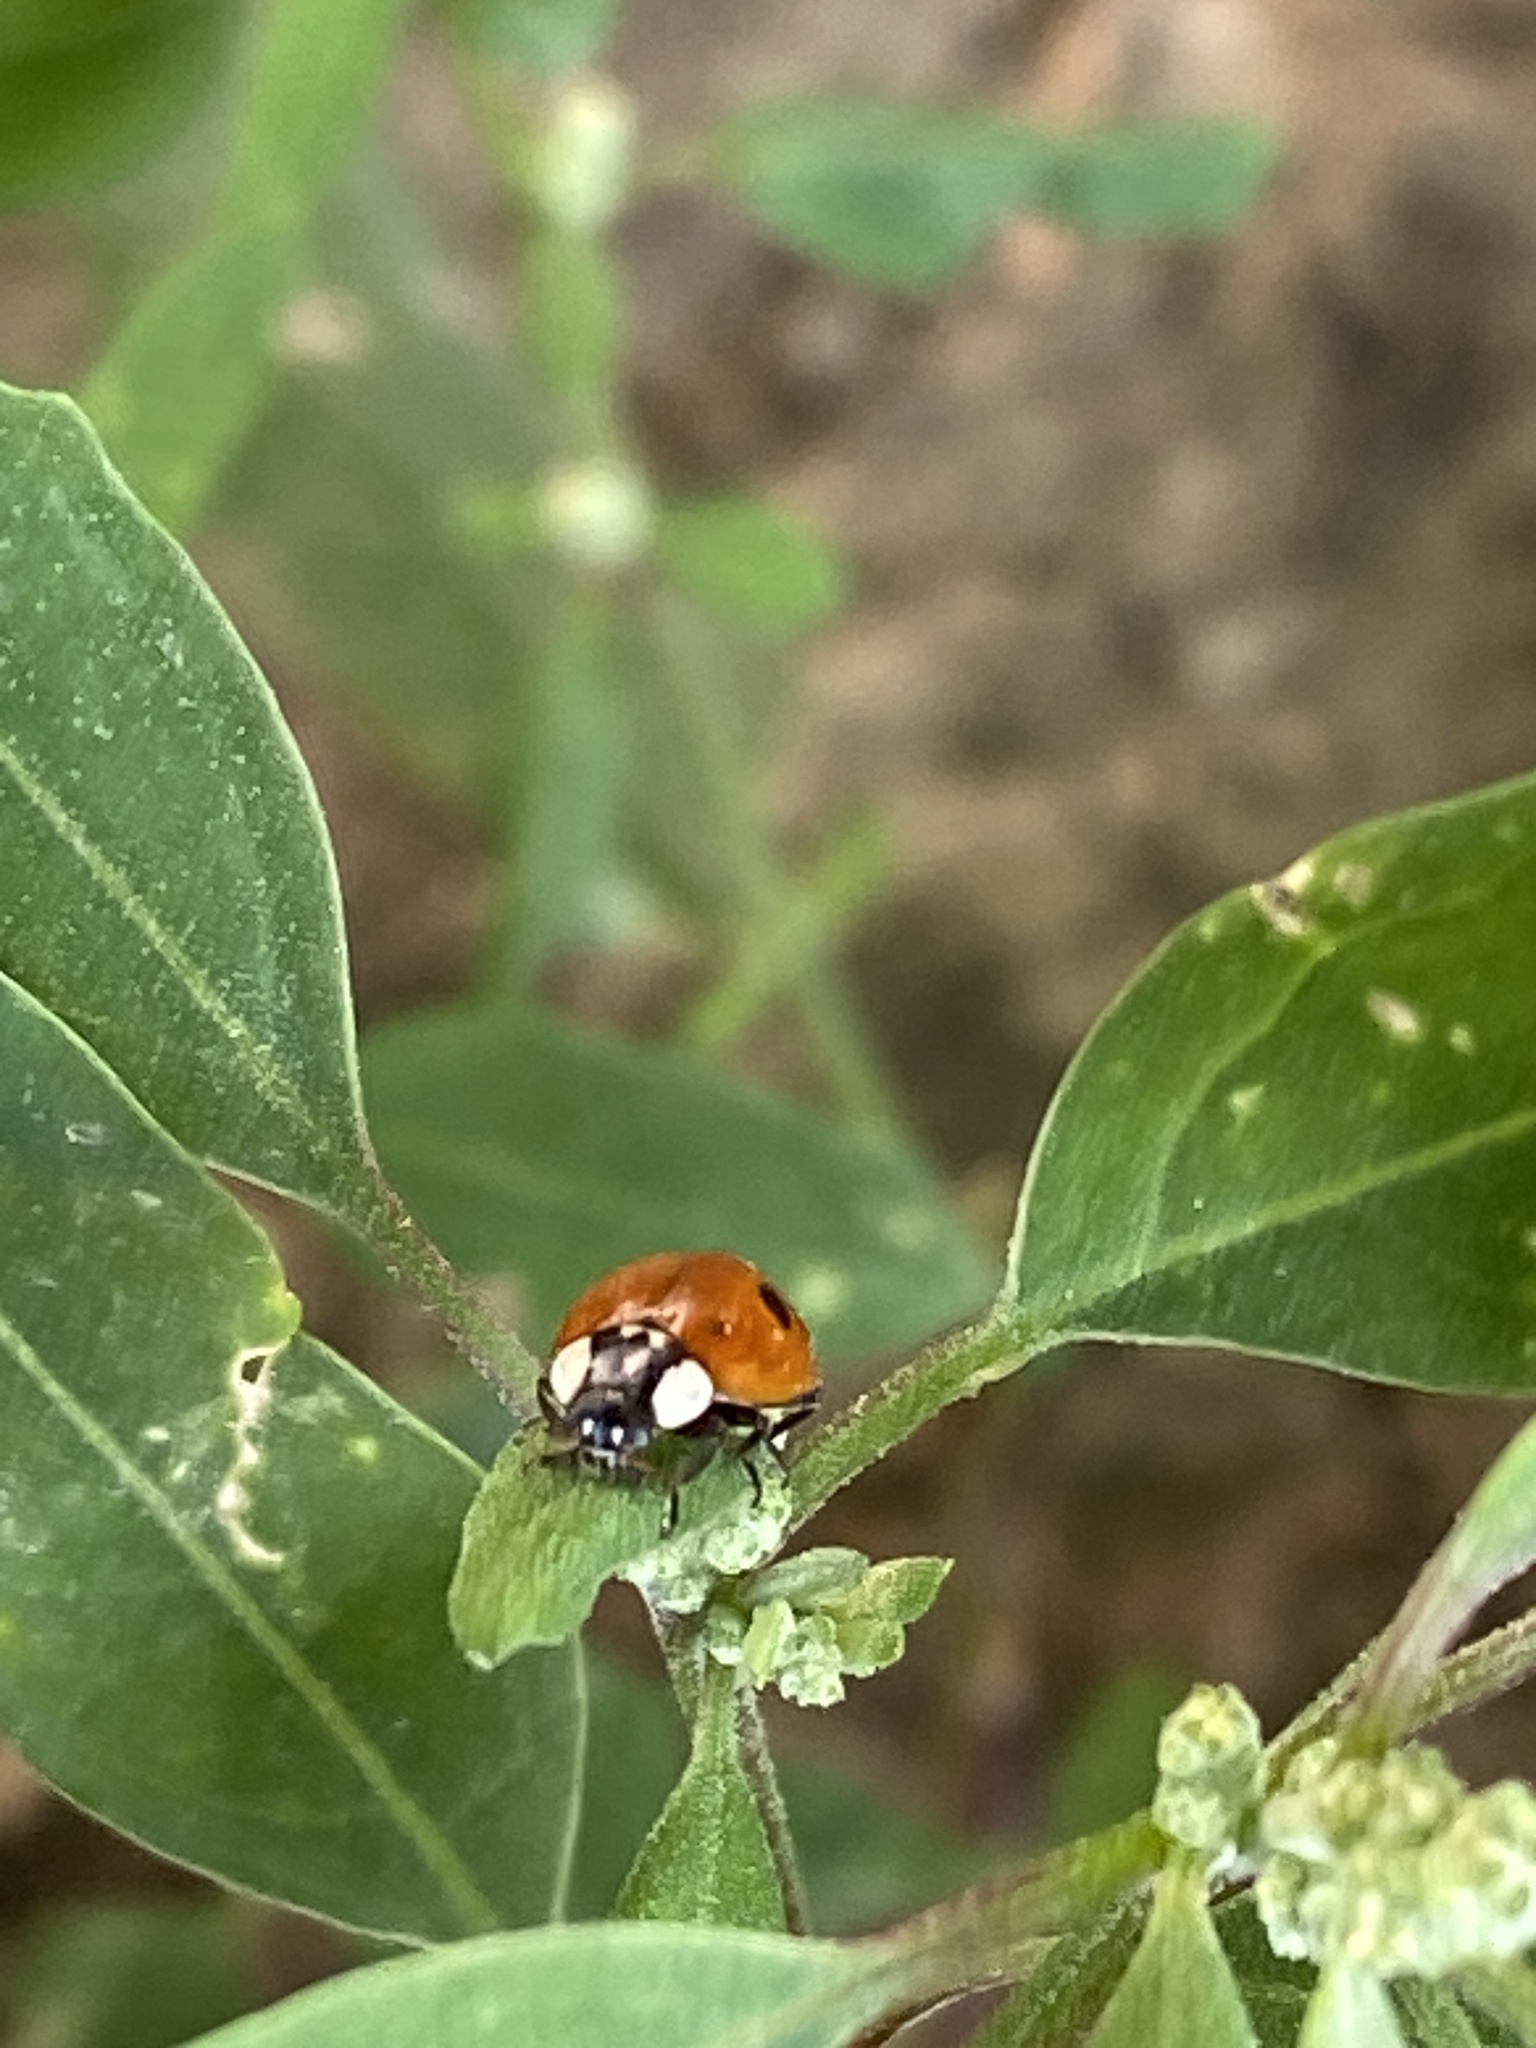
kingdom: Animalia
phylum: Arthropoda
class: Insecta
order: Coleoptera
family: Coccinellidae
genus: Adalia
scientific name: Adalia bipunctata
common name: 2-spot ladybird
